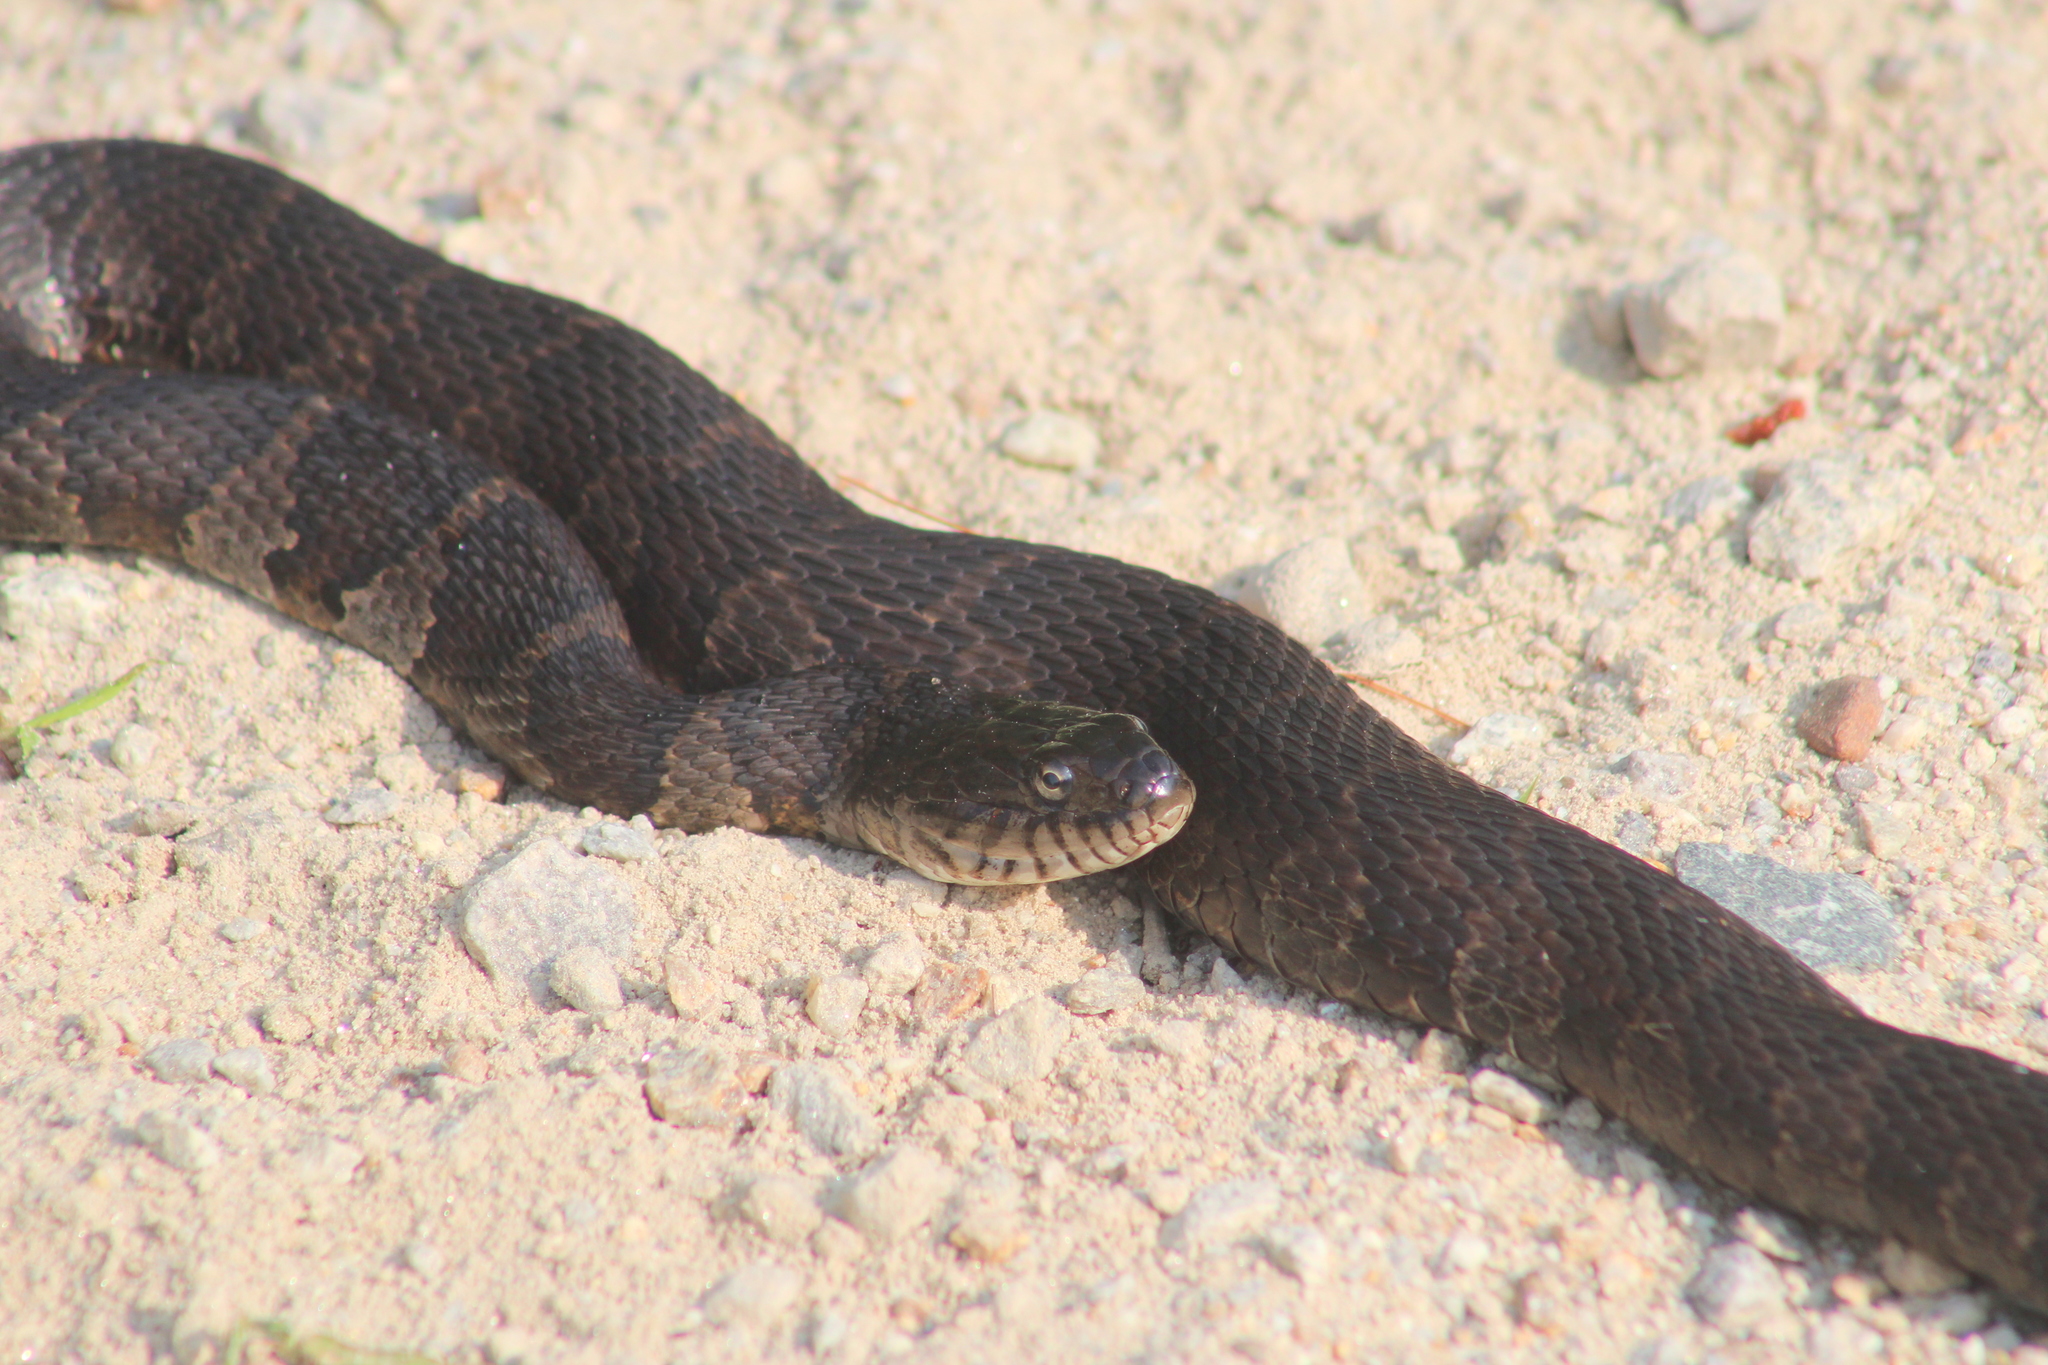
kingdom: Animalia
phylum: Chordata
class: Squamata
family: Colubridae
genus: Nerodia
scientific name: Nerodia sipedon
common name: Northern water snake
